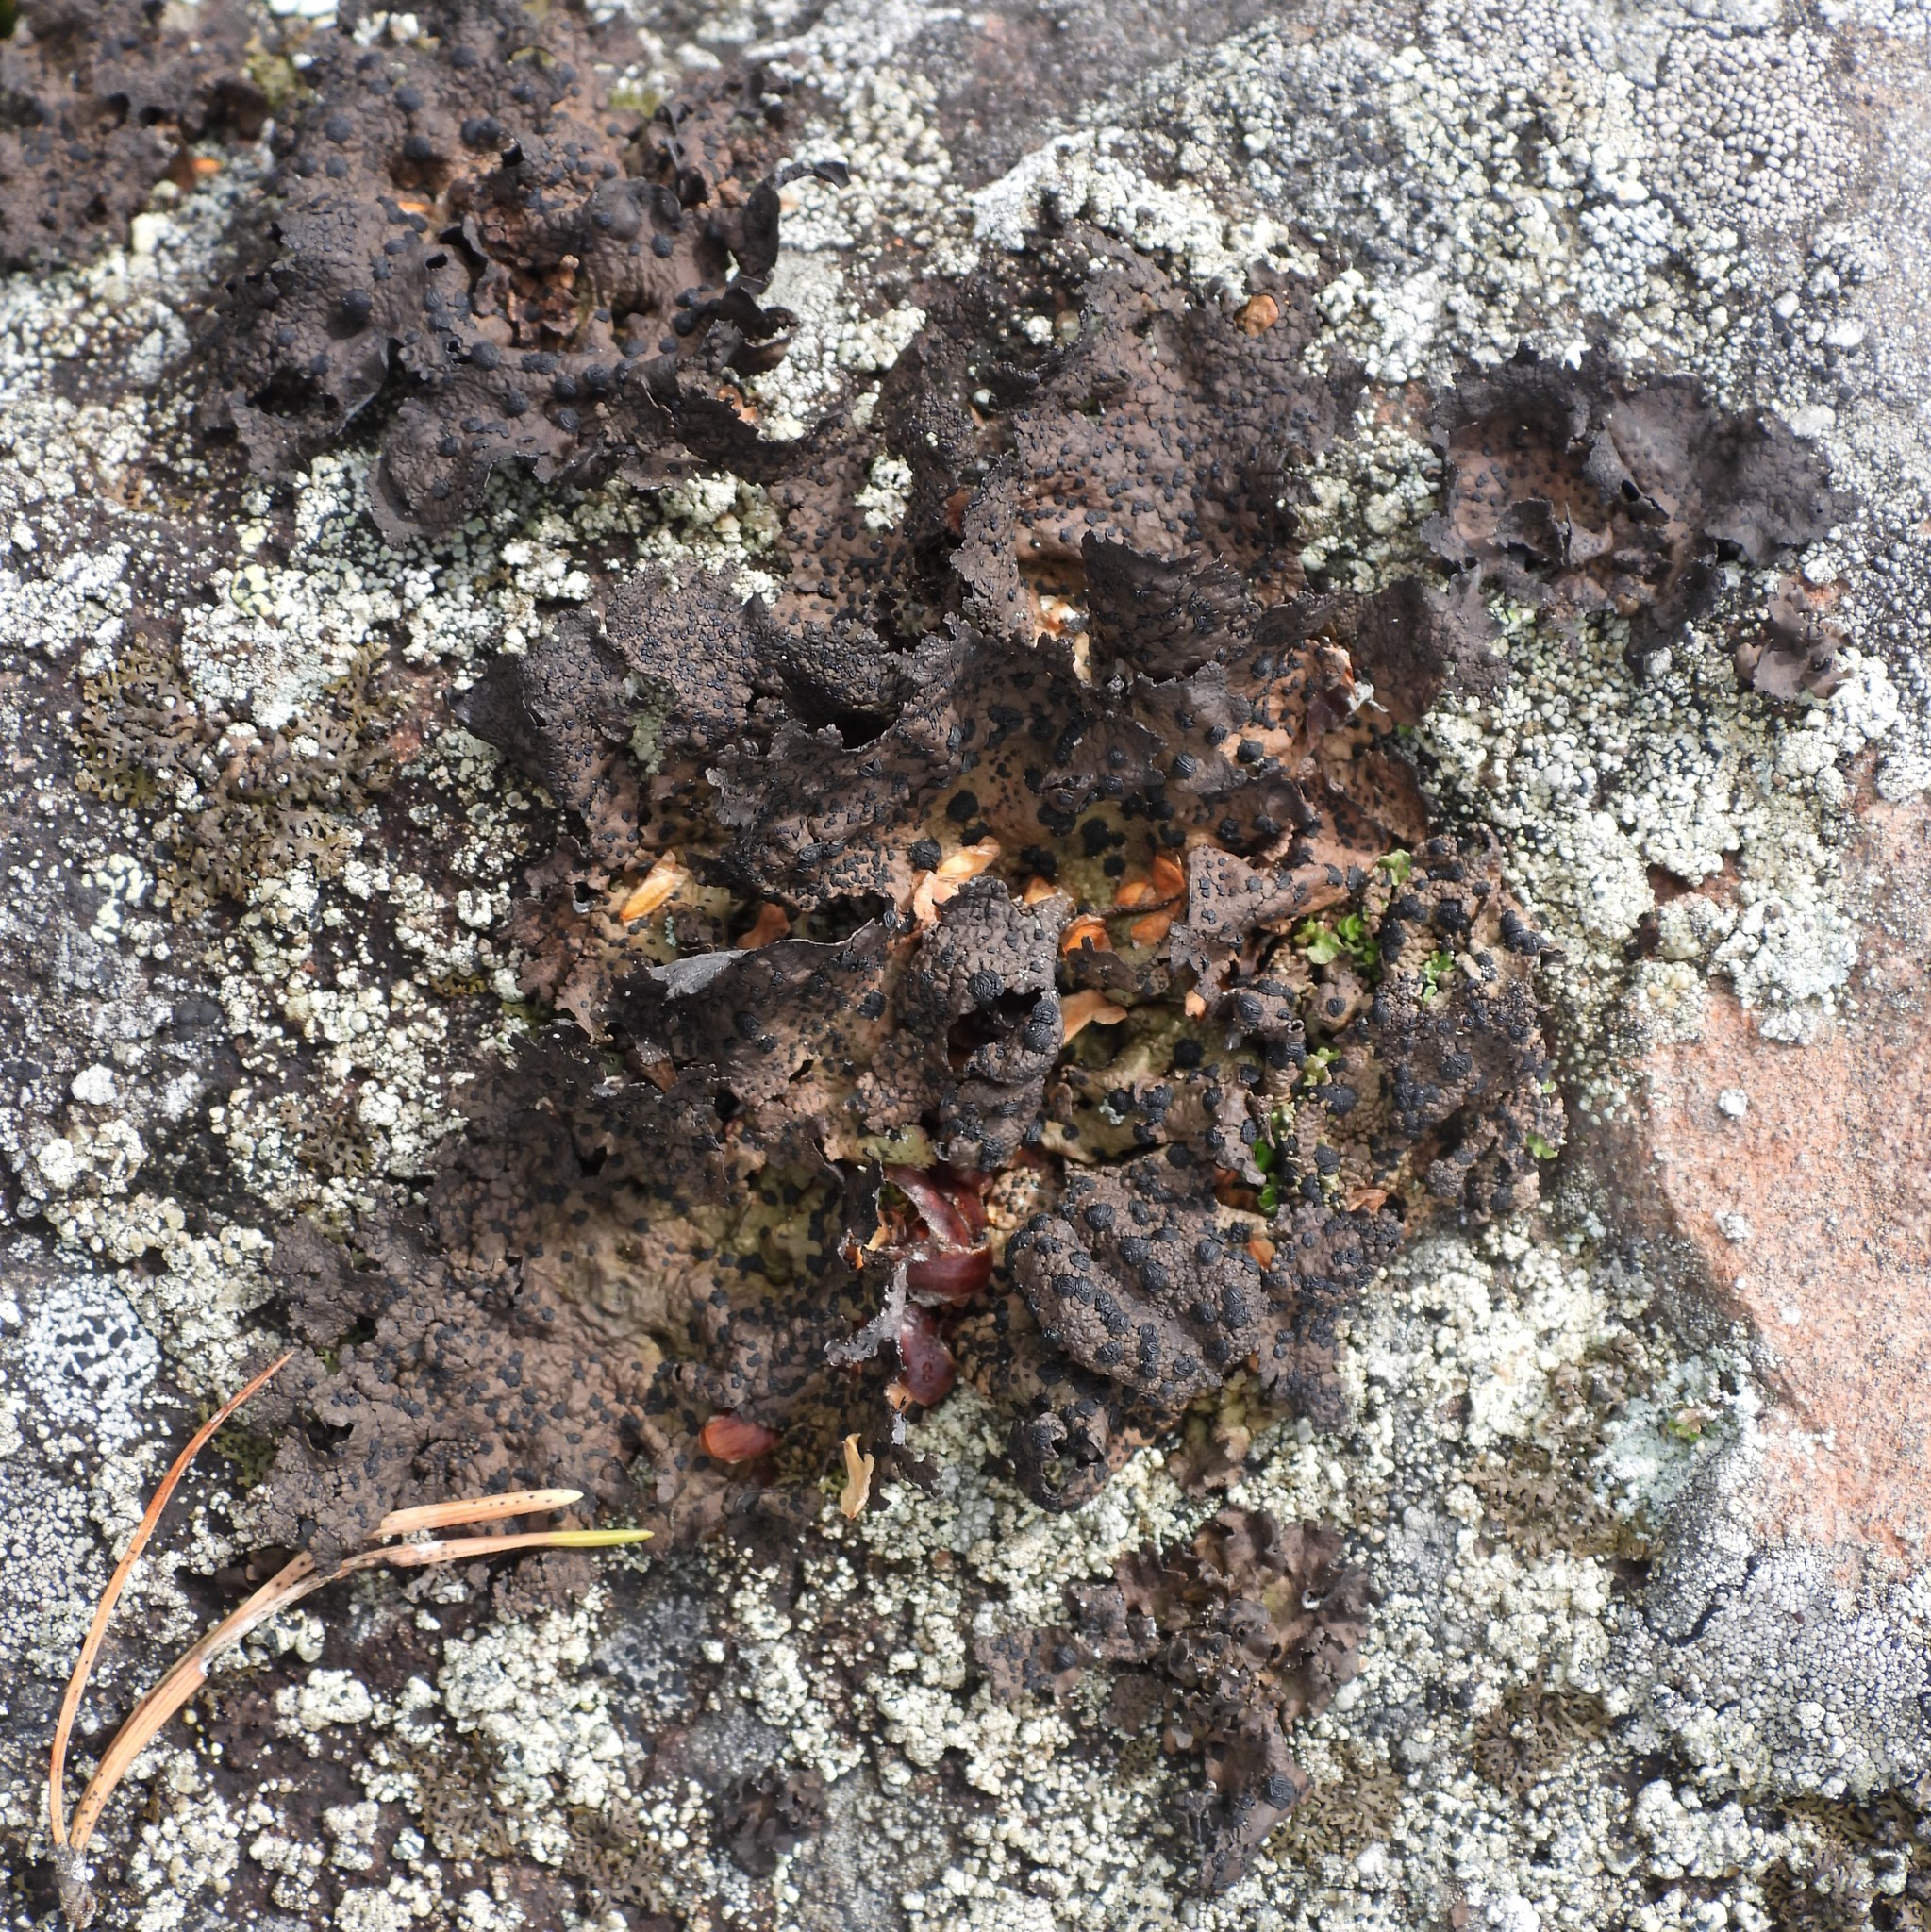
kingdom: Fungi
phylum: Ascomycota
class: Lecanoromycetes
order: Umbilicariales
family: Umbilicariaceae
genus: Umbilicaria
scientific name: Umbilicaria hyperborea
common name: Blistered rock tripe
